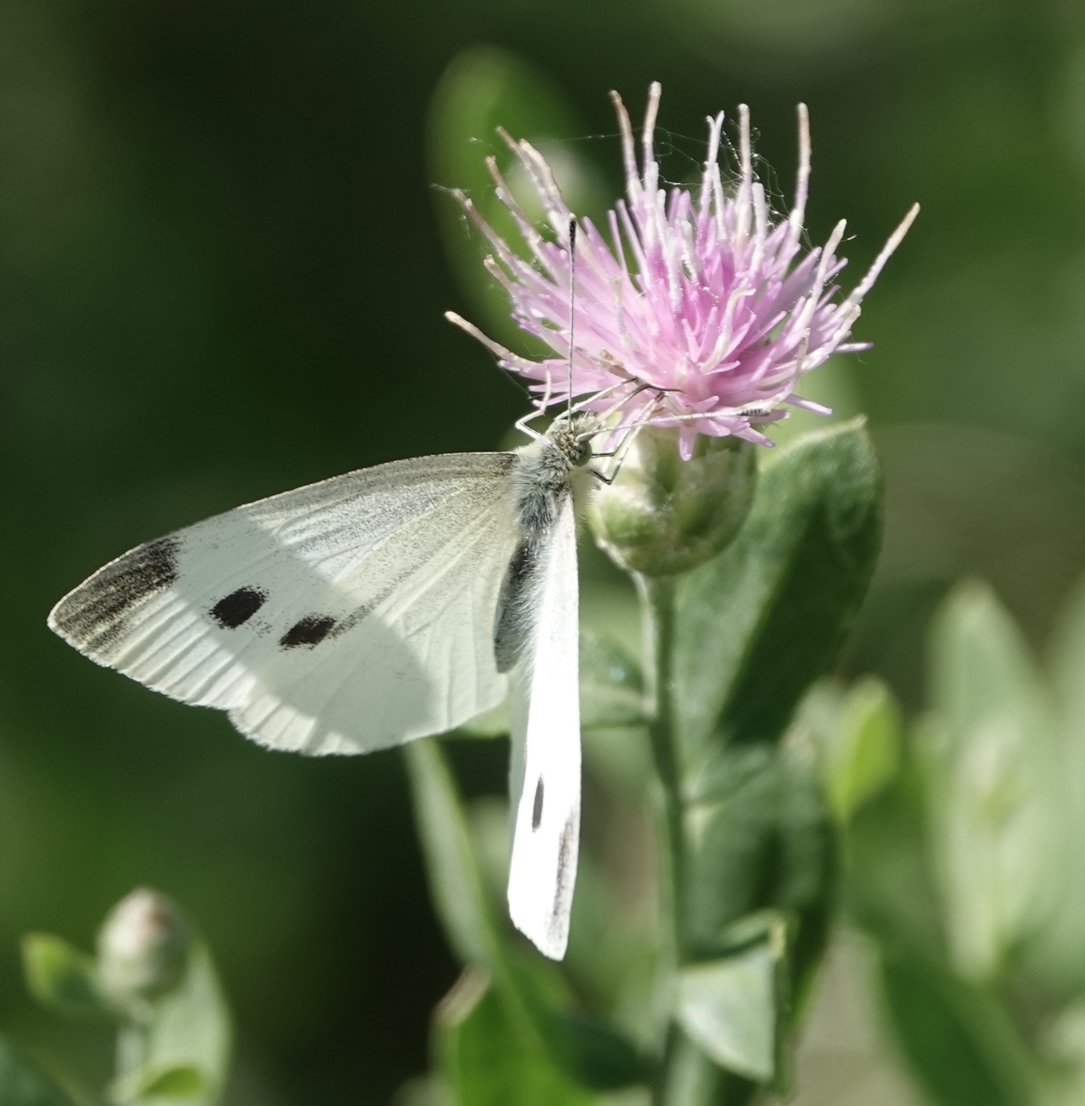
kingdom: Animalia
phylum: Arthropoda
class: Insecta
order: Lepidoptera
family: Pieridae
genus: Pieris
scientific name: Pieris rapae
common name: Small white
